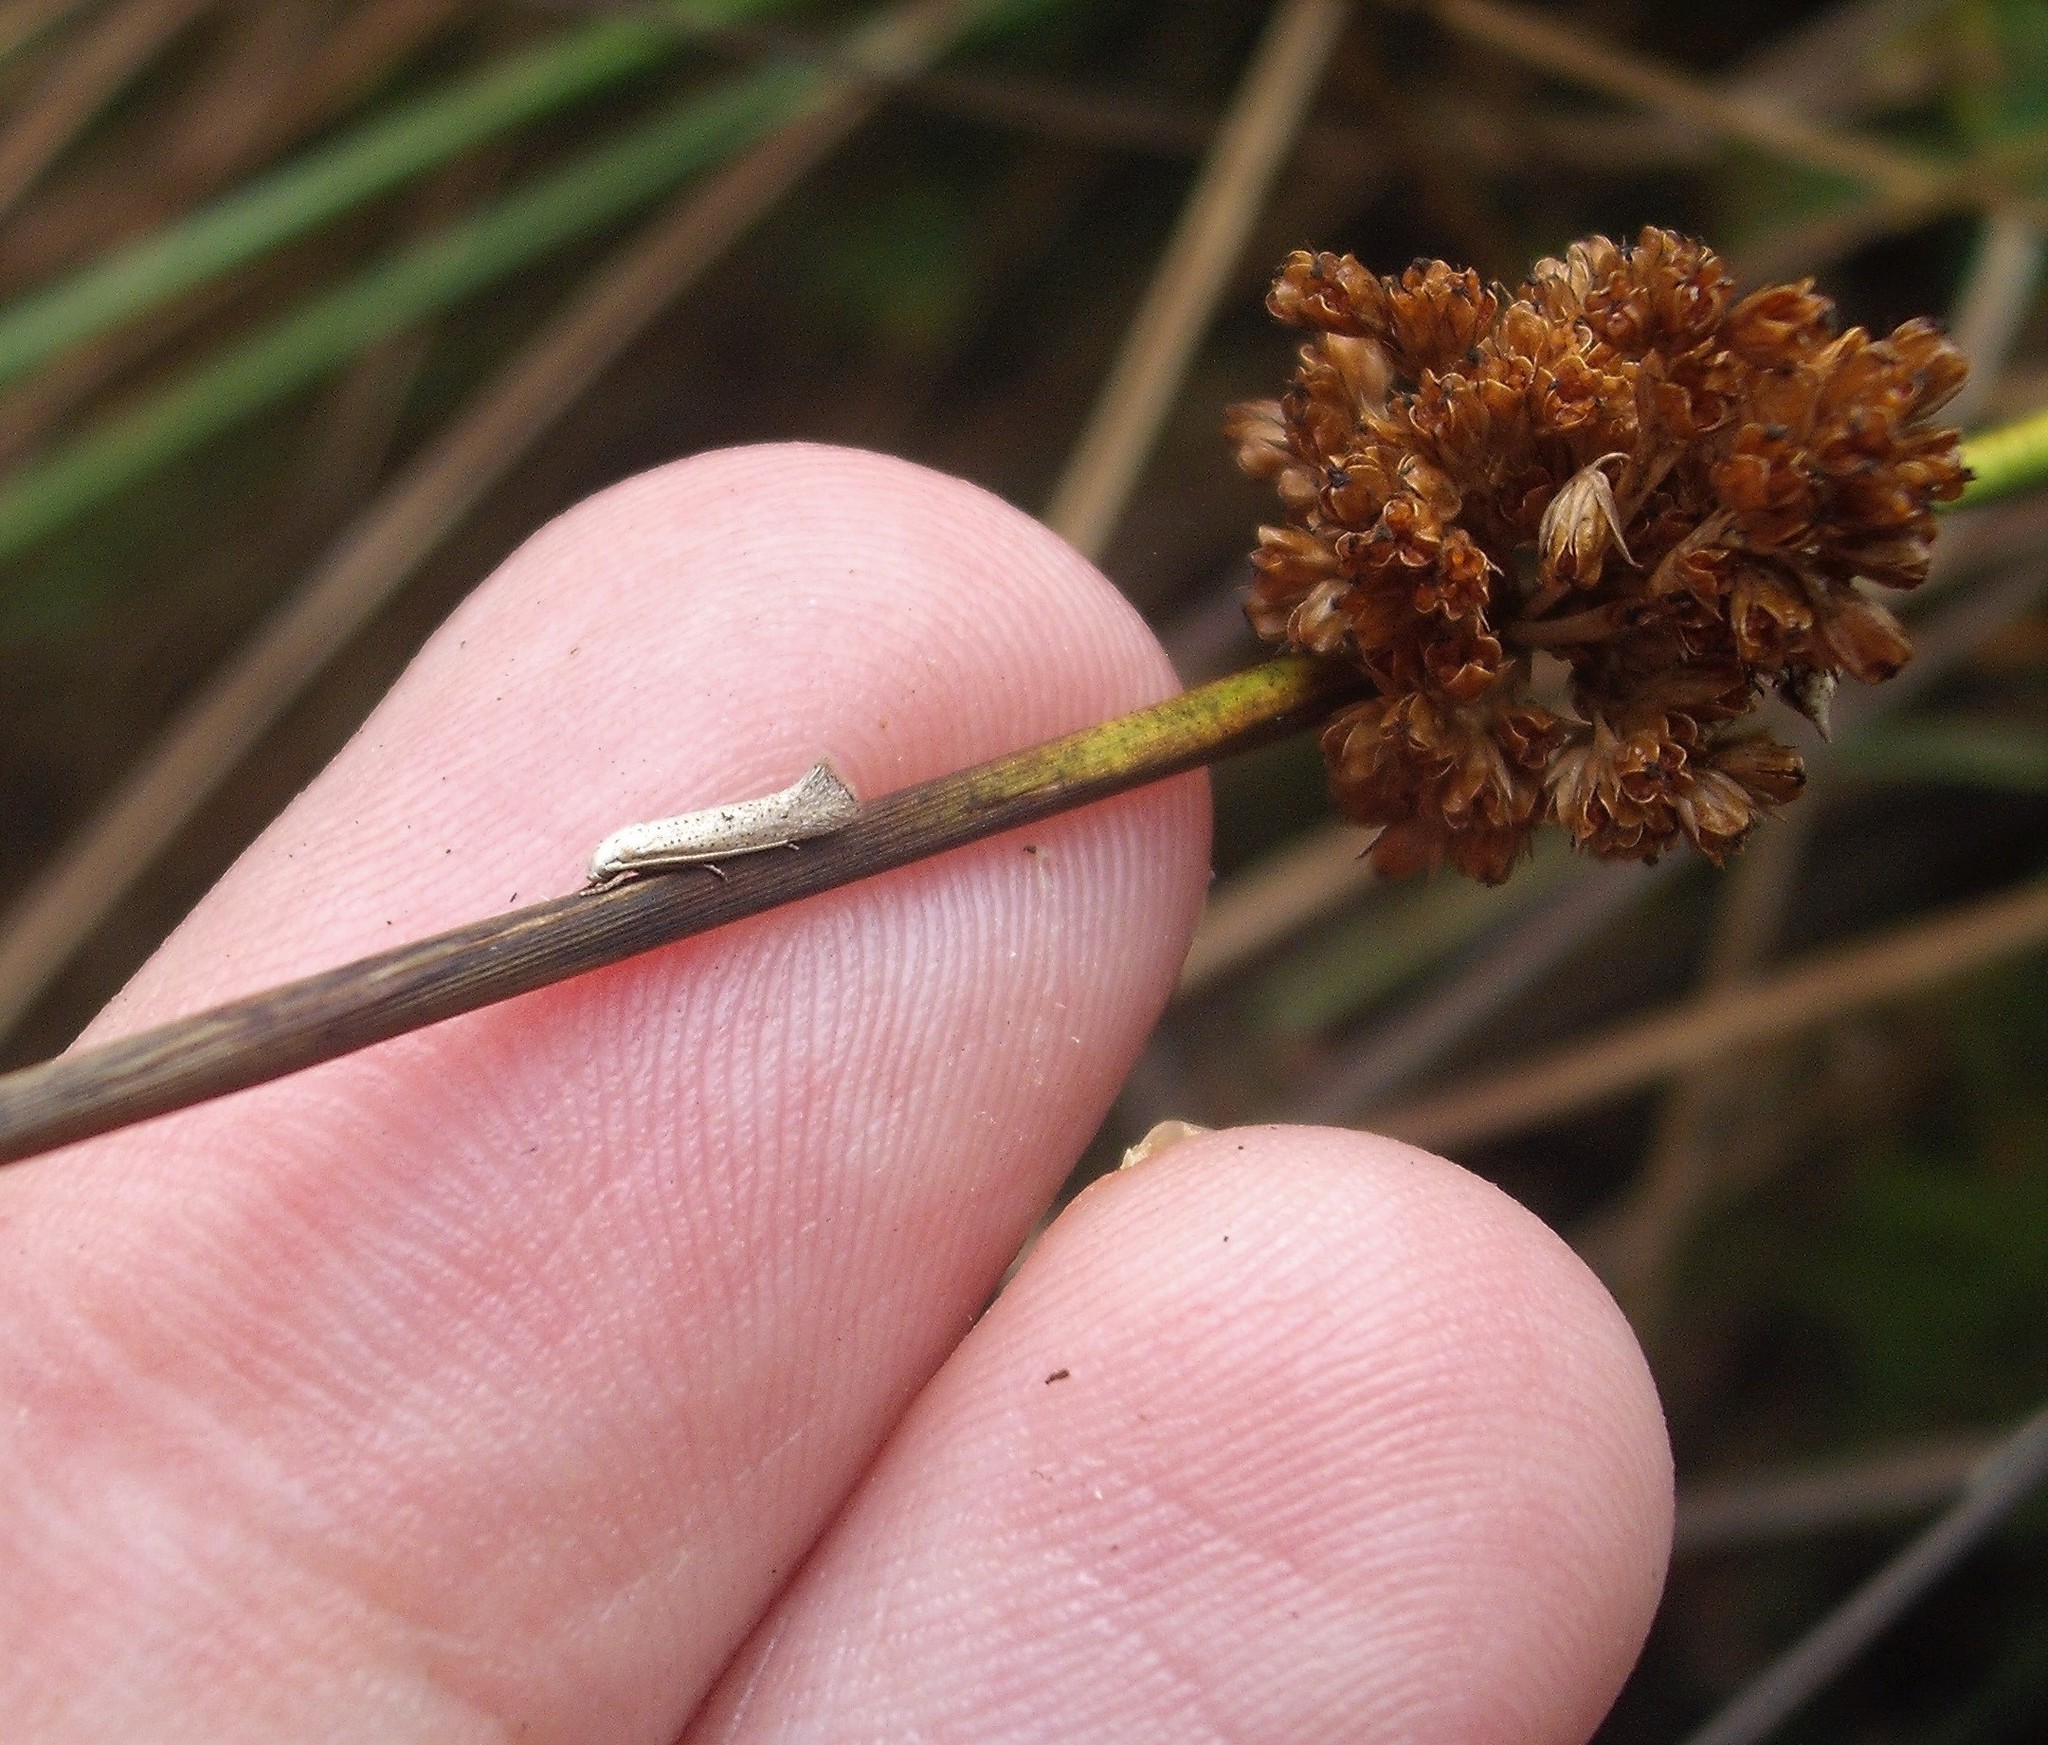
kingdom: Animalia
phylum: Arthropoda
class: Insecta
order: Lepidoptera
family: Elachistidae
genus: Elachista
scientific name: Elachista gerasmia
